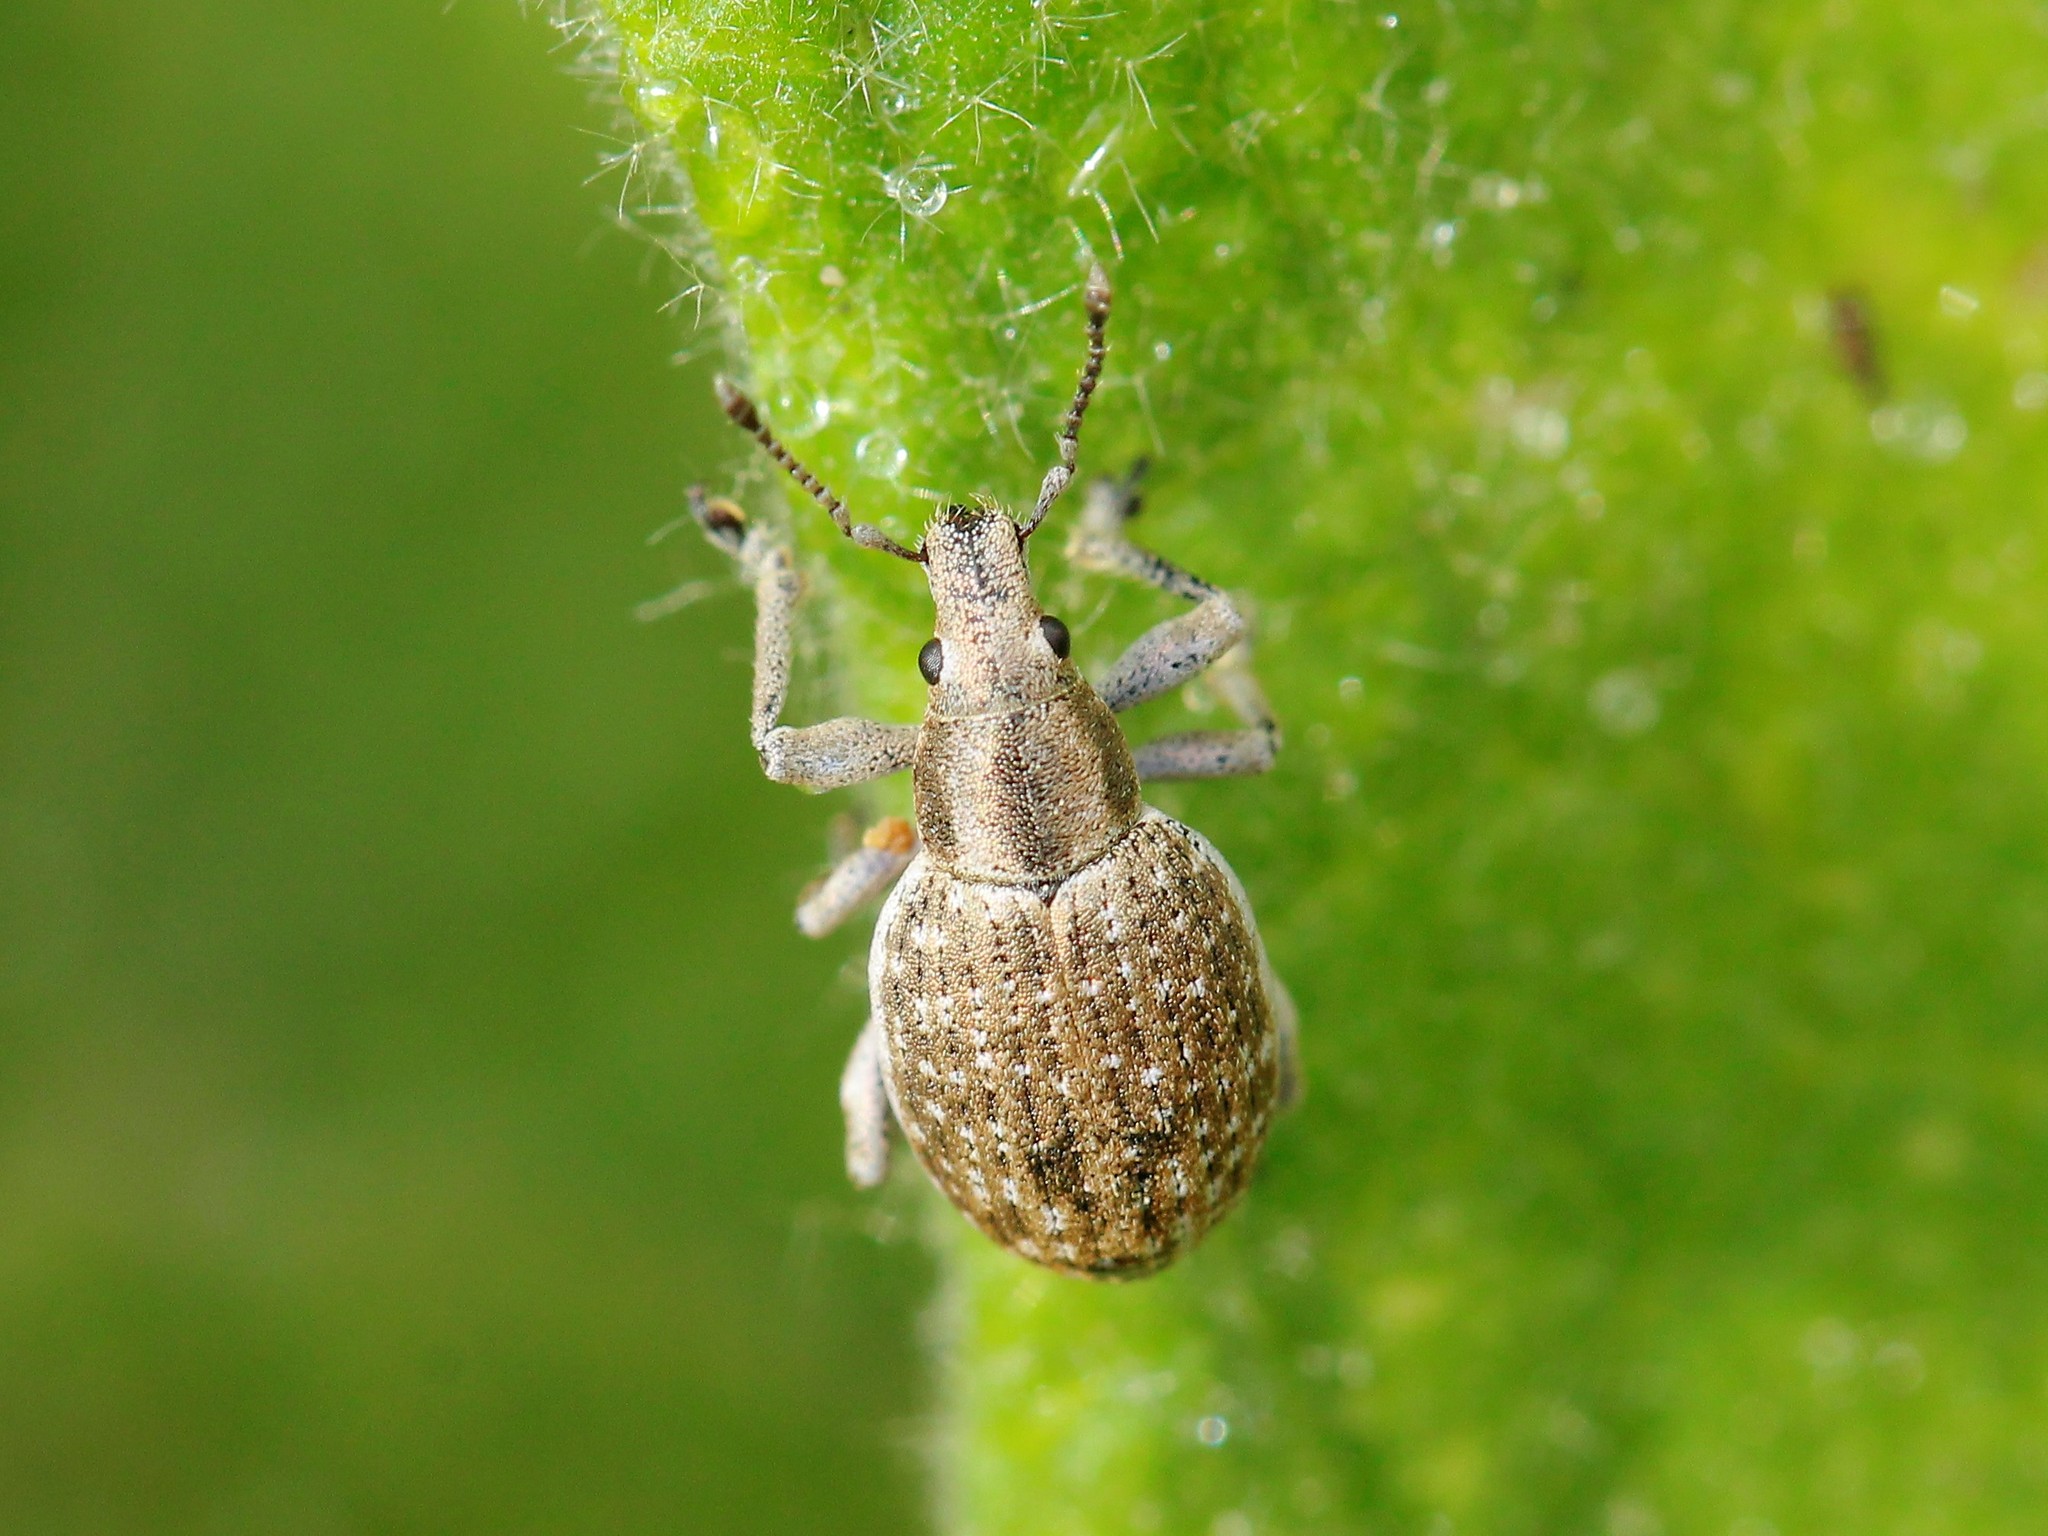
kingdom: Animalia
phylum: Arthropoda
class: Insecta
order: Coleoptera
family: Curculionidae
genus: Attactagenus
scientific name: Attactagenus albinus
